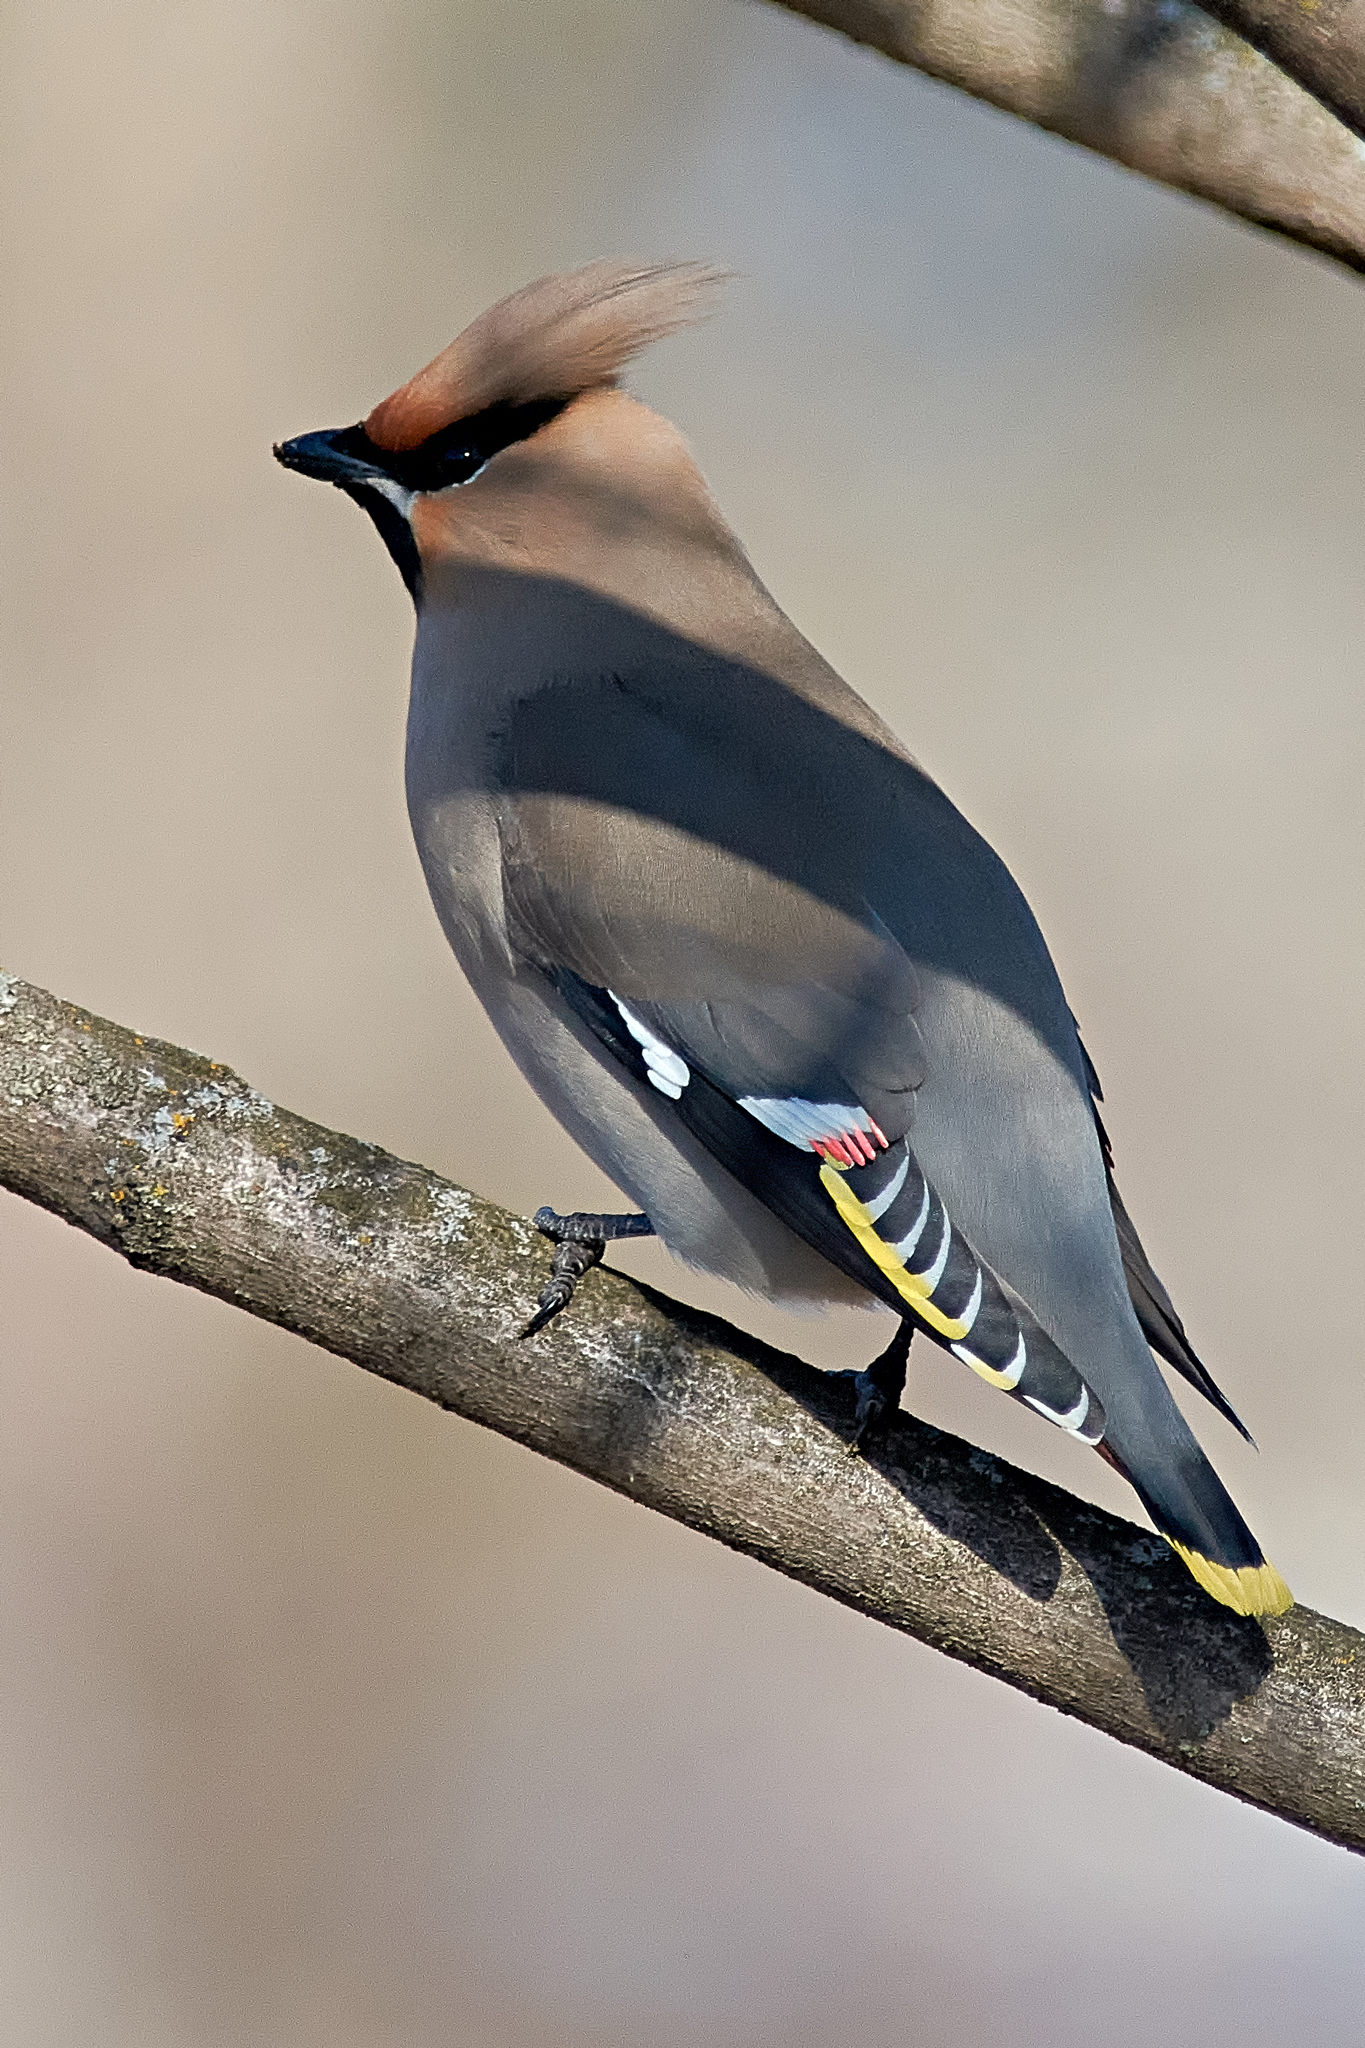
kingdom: Animalia
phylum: Chordata
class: Aves
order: Passeriformes
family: Bombycillidae
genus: Bombycilla
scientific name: Bombycilla garrulus
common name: Bohemian waxwing
